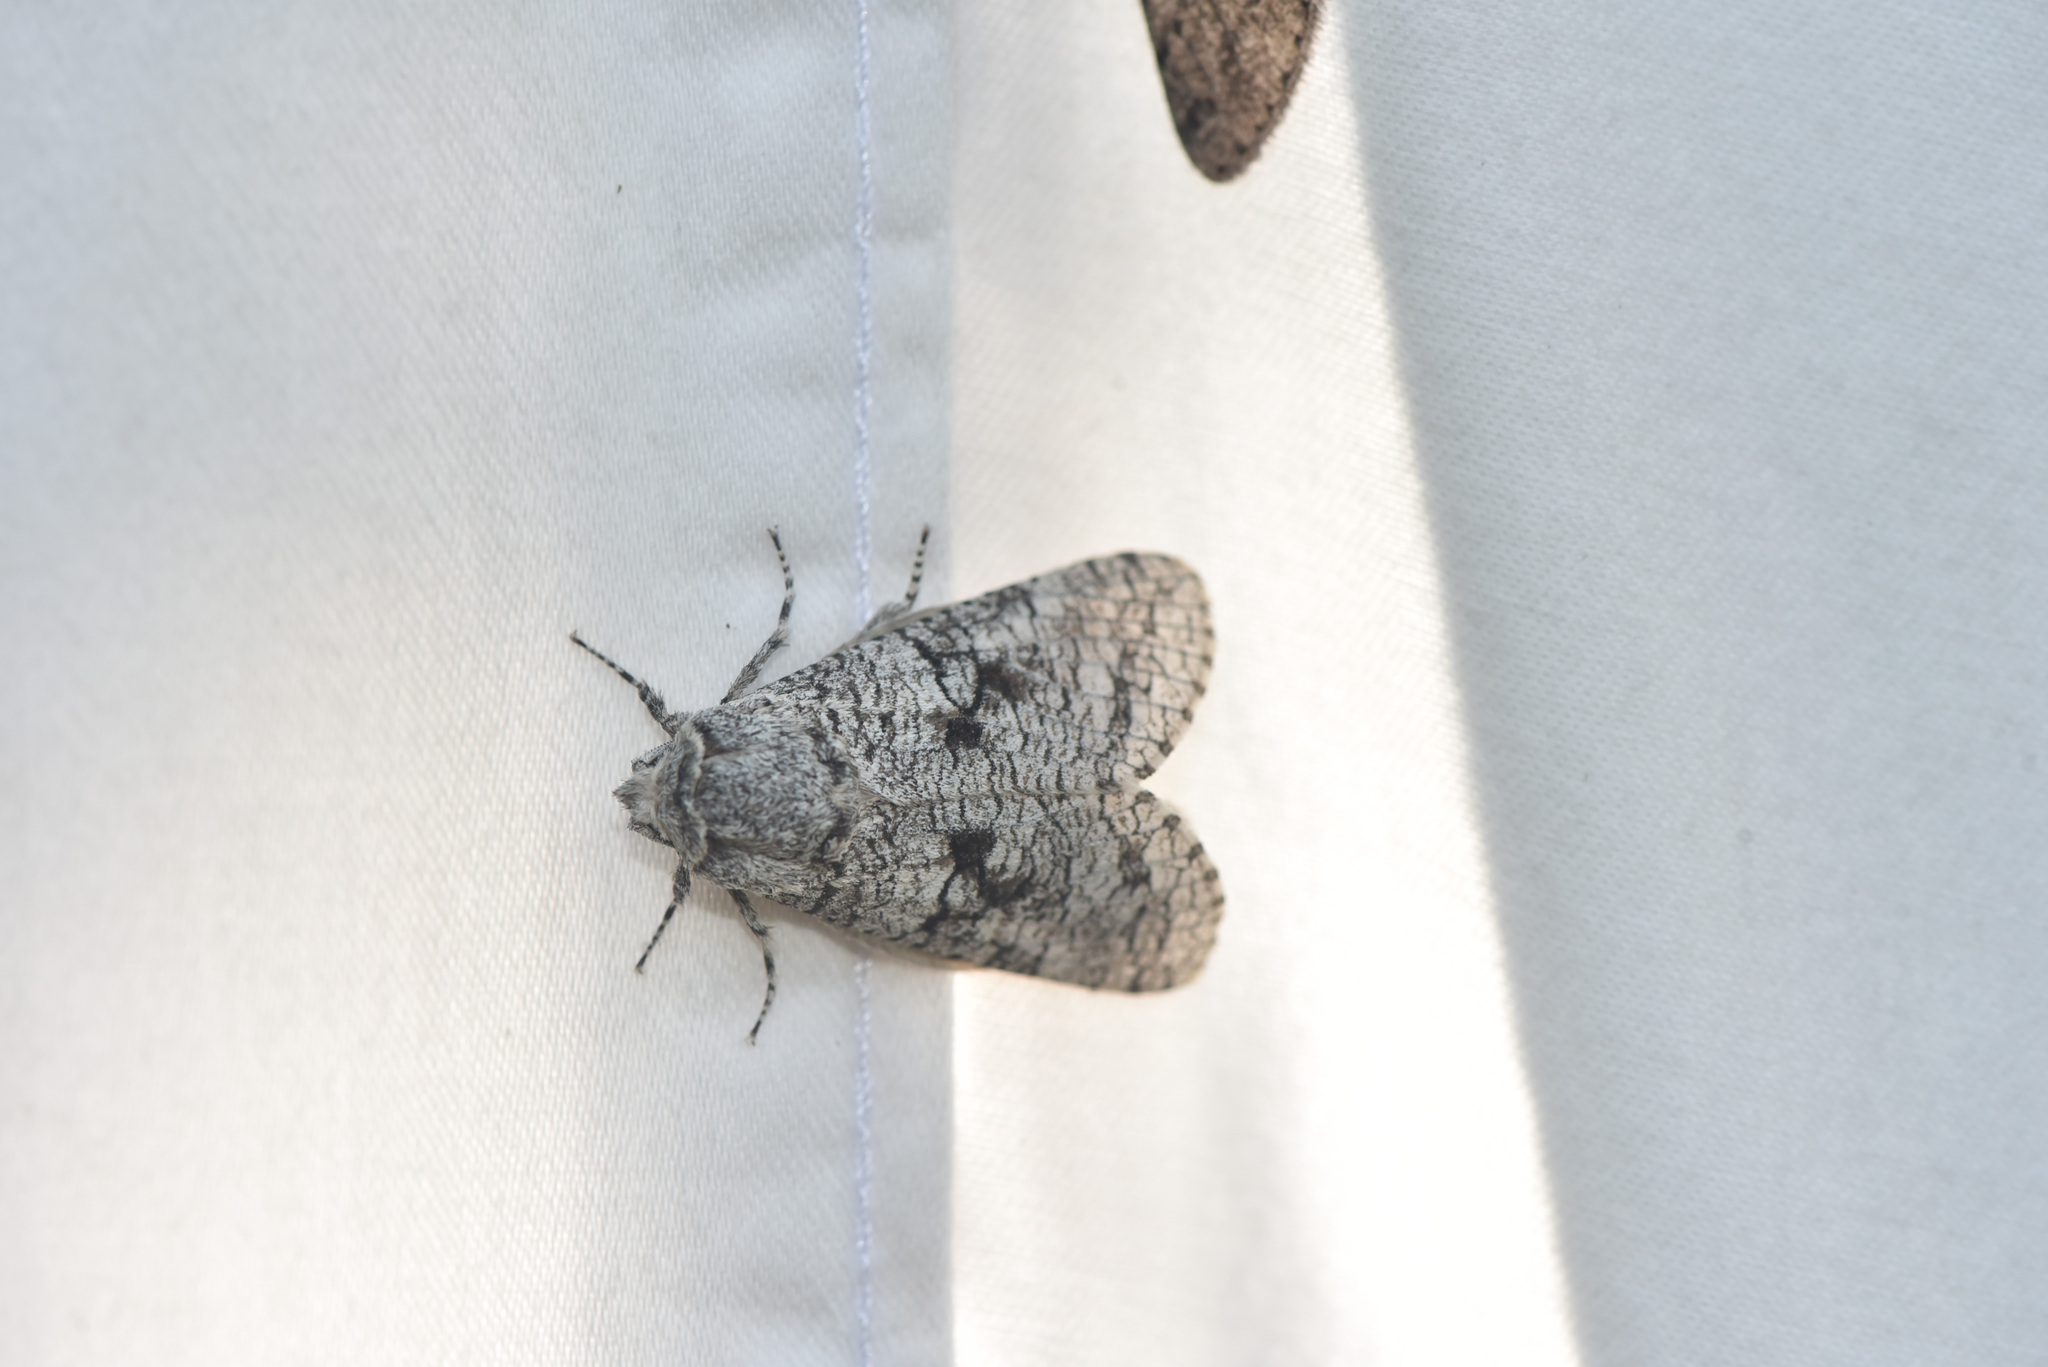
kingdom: Animalia
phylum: Arthropoda
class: Insecta
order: Lepidoptera
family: Cossidae
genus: Acossus
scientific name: Acossus populi
